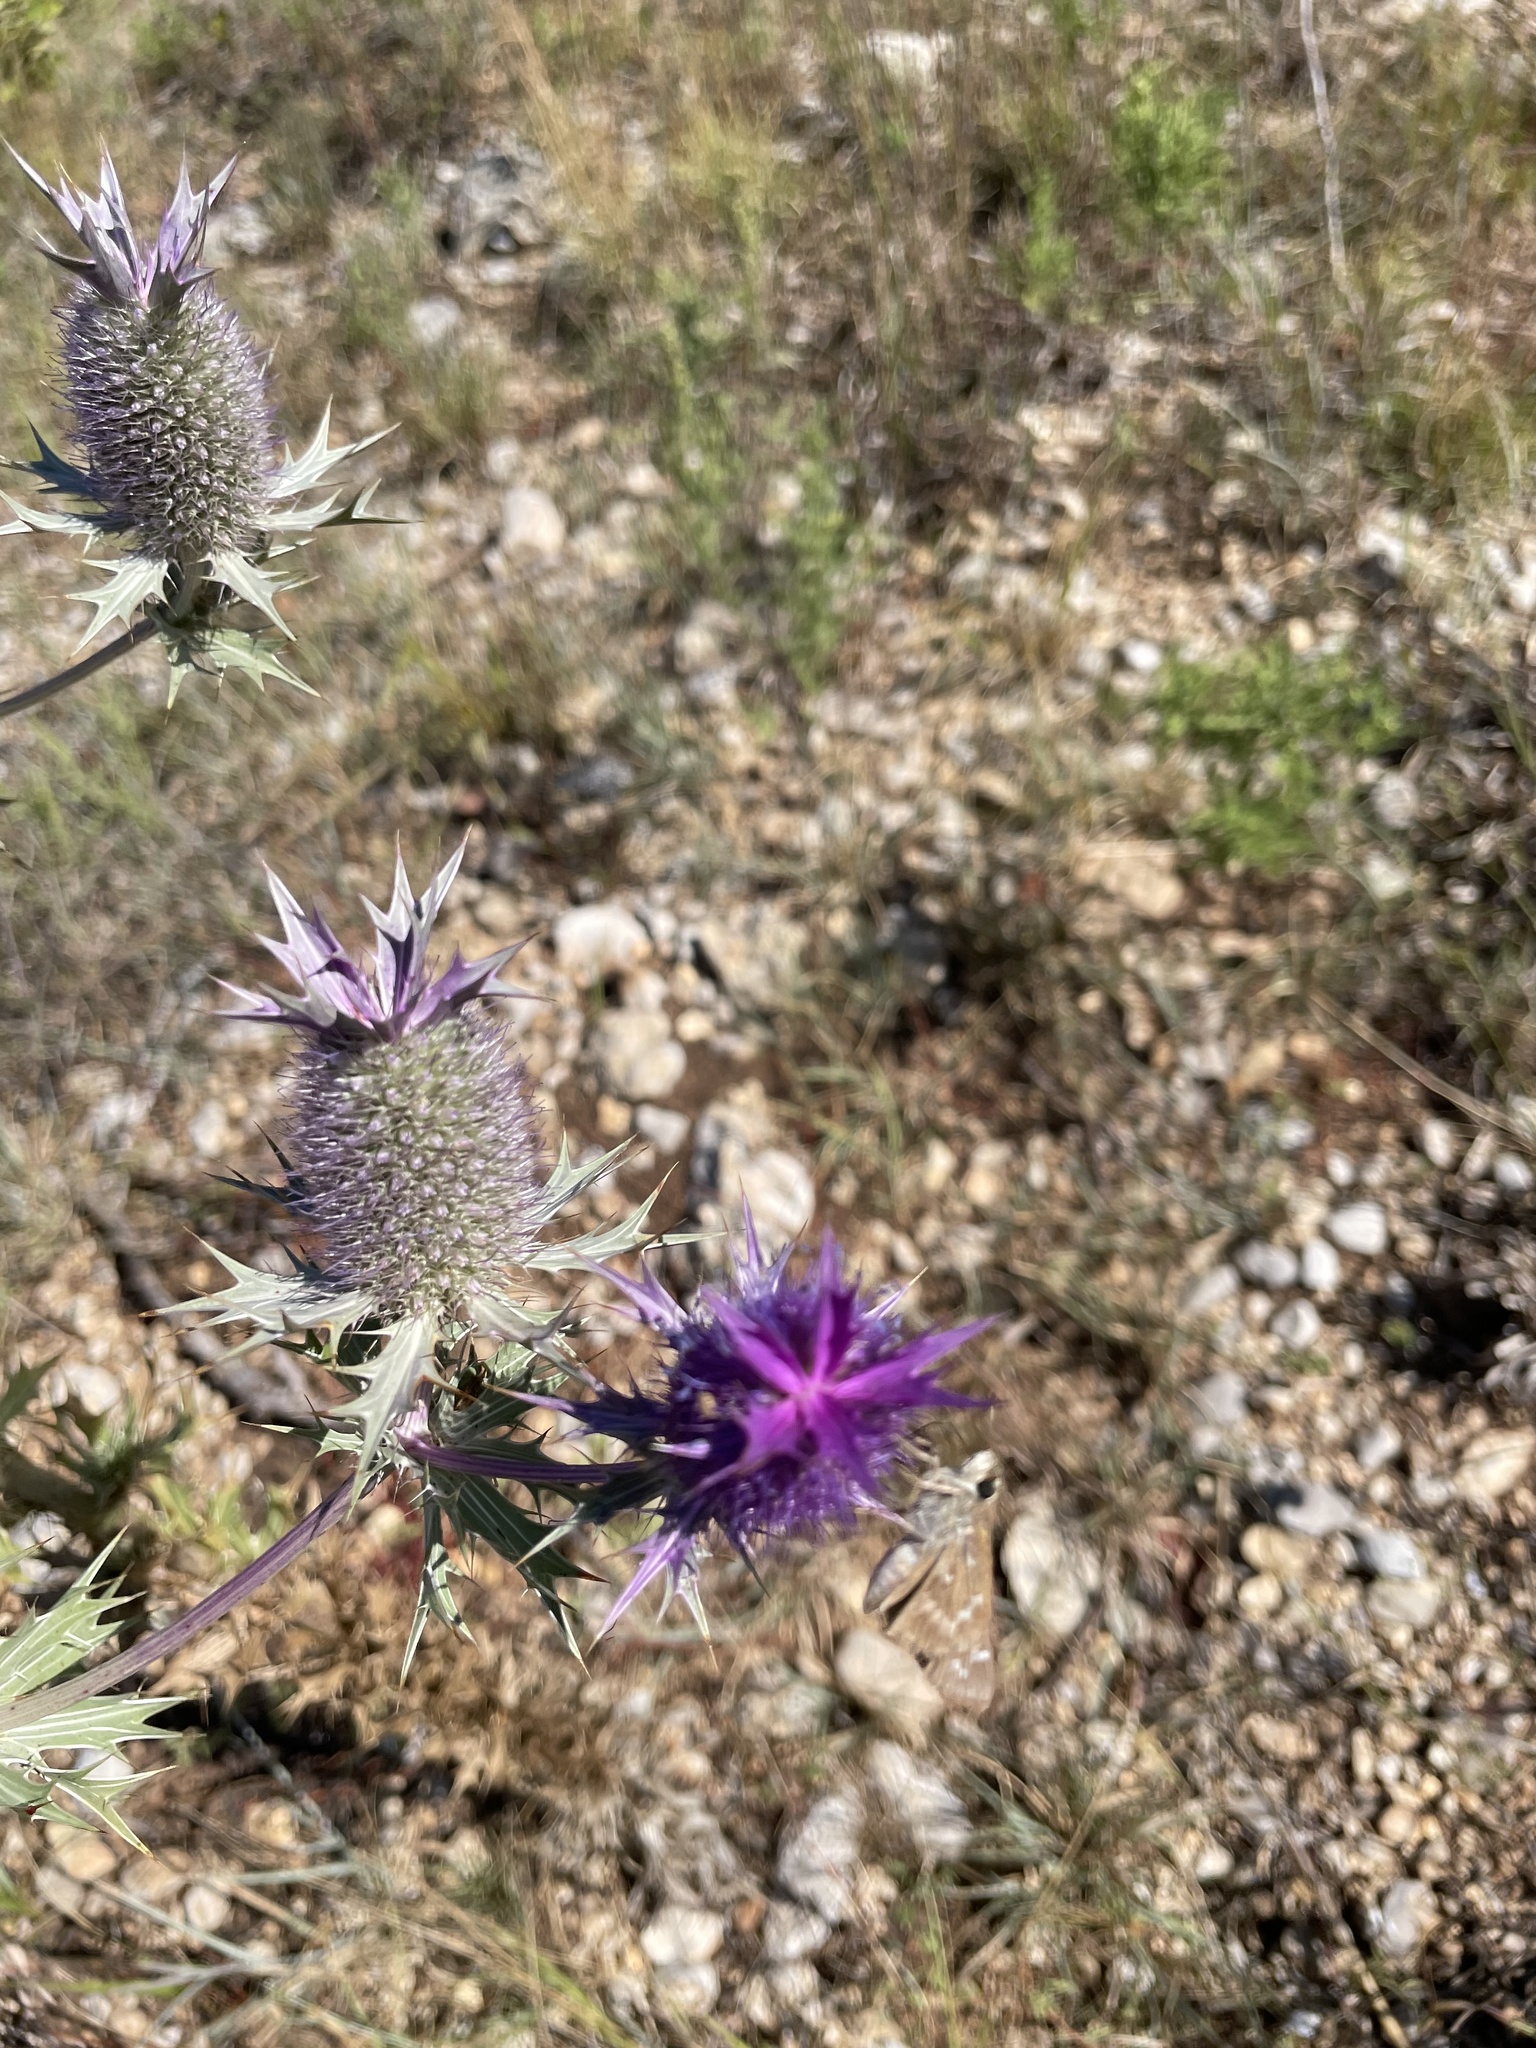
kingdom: Animalia
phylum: Arthropoda
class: Insecta
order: Lepidoptera
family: Hesperiidae
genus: Atalopedes
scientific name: Atalopedes
